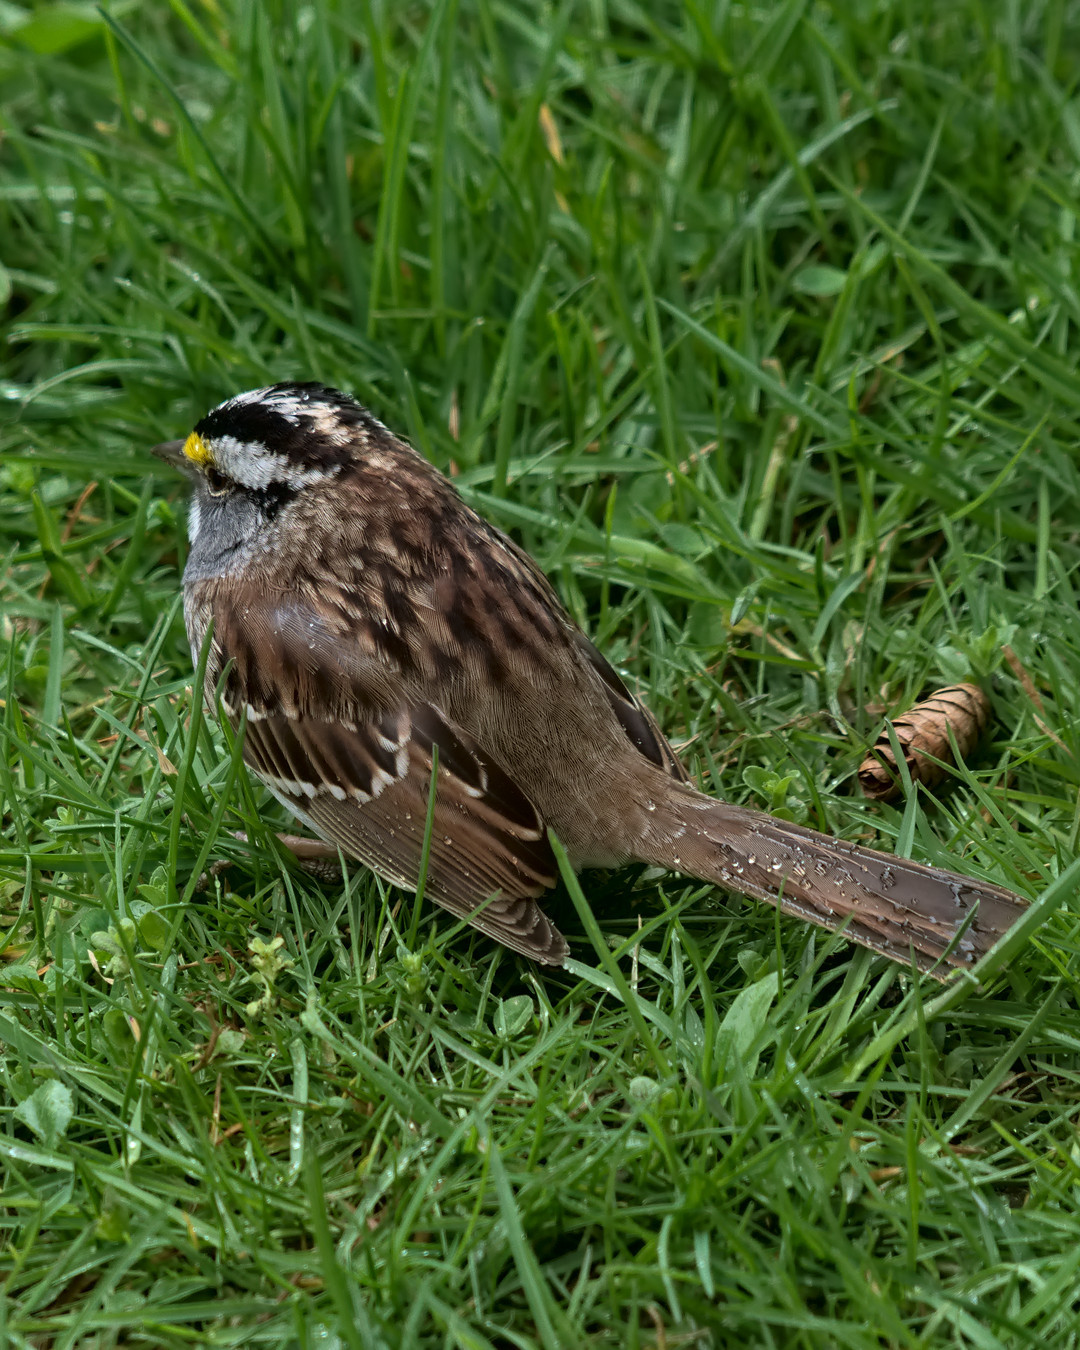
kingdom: Animalia
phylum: Chordata
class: Aves
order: Passeriformes
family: Passerellidae
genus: Zonotrichia
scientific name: Zonotrichia albicollis
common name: White-throated sparrow
